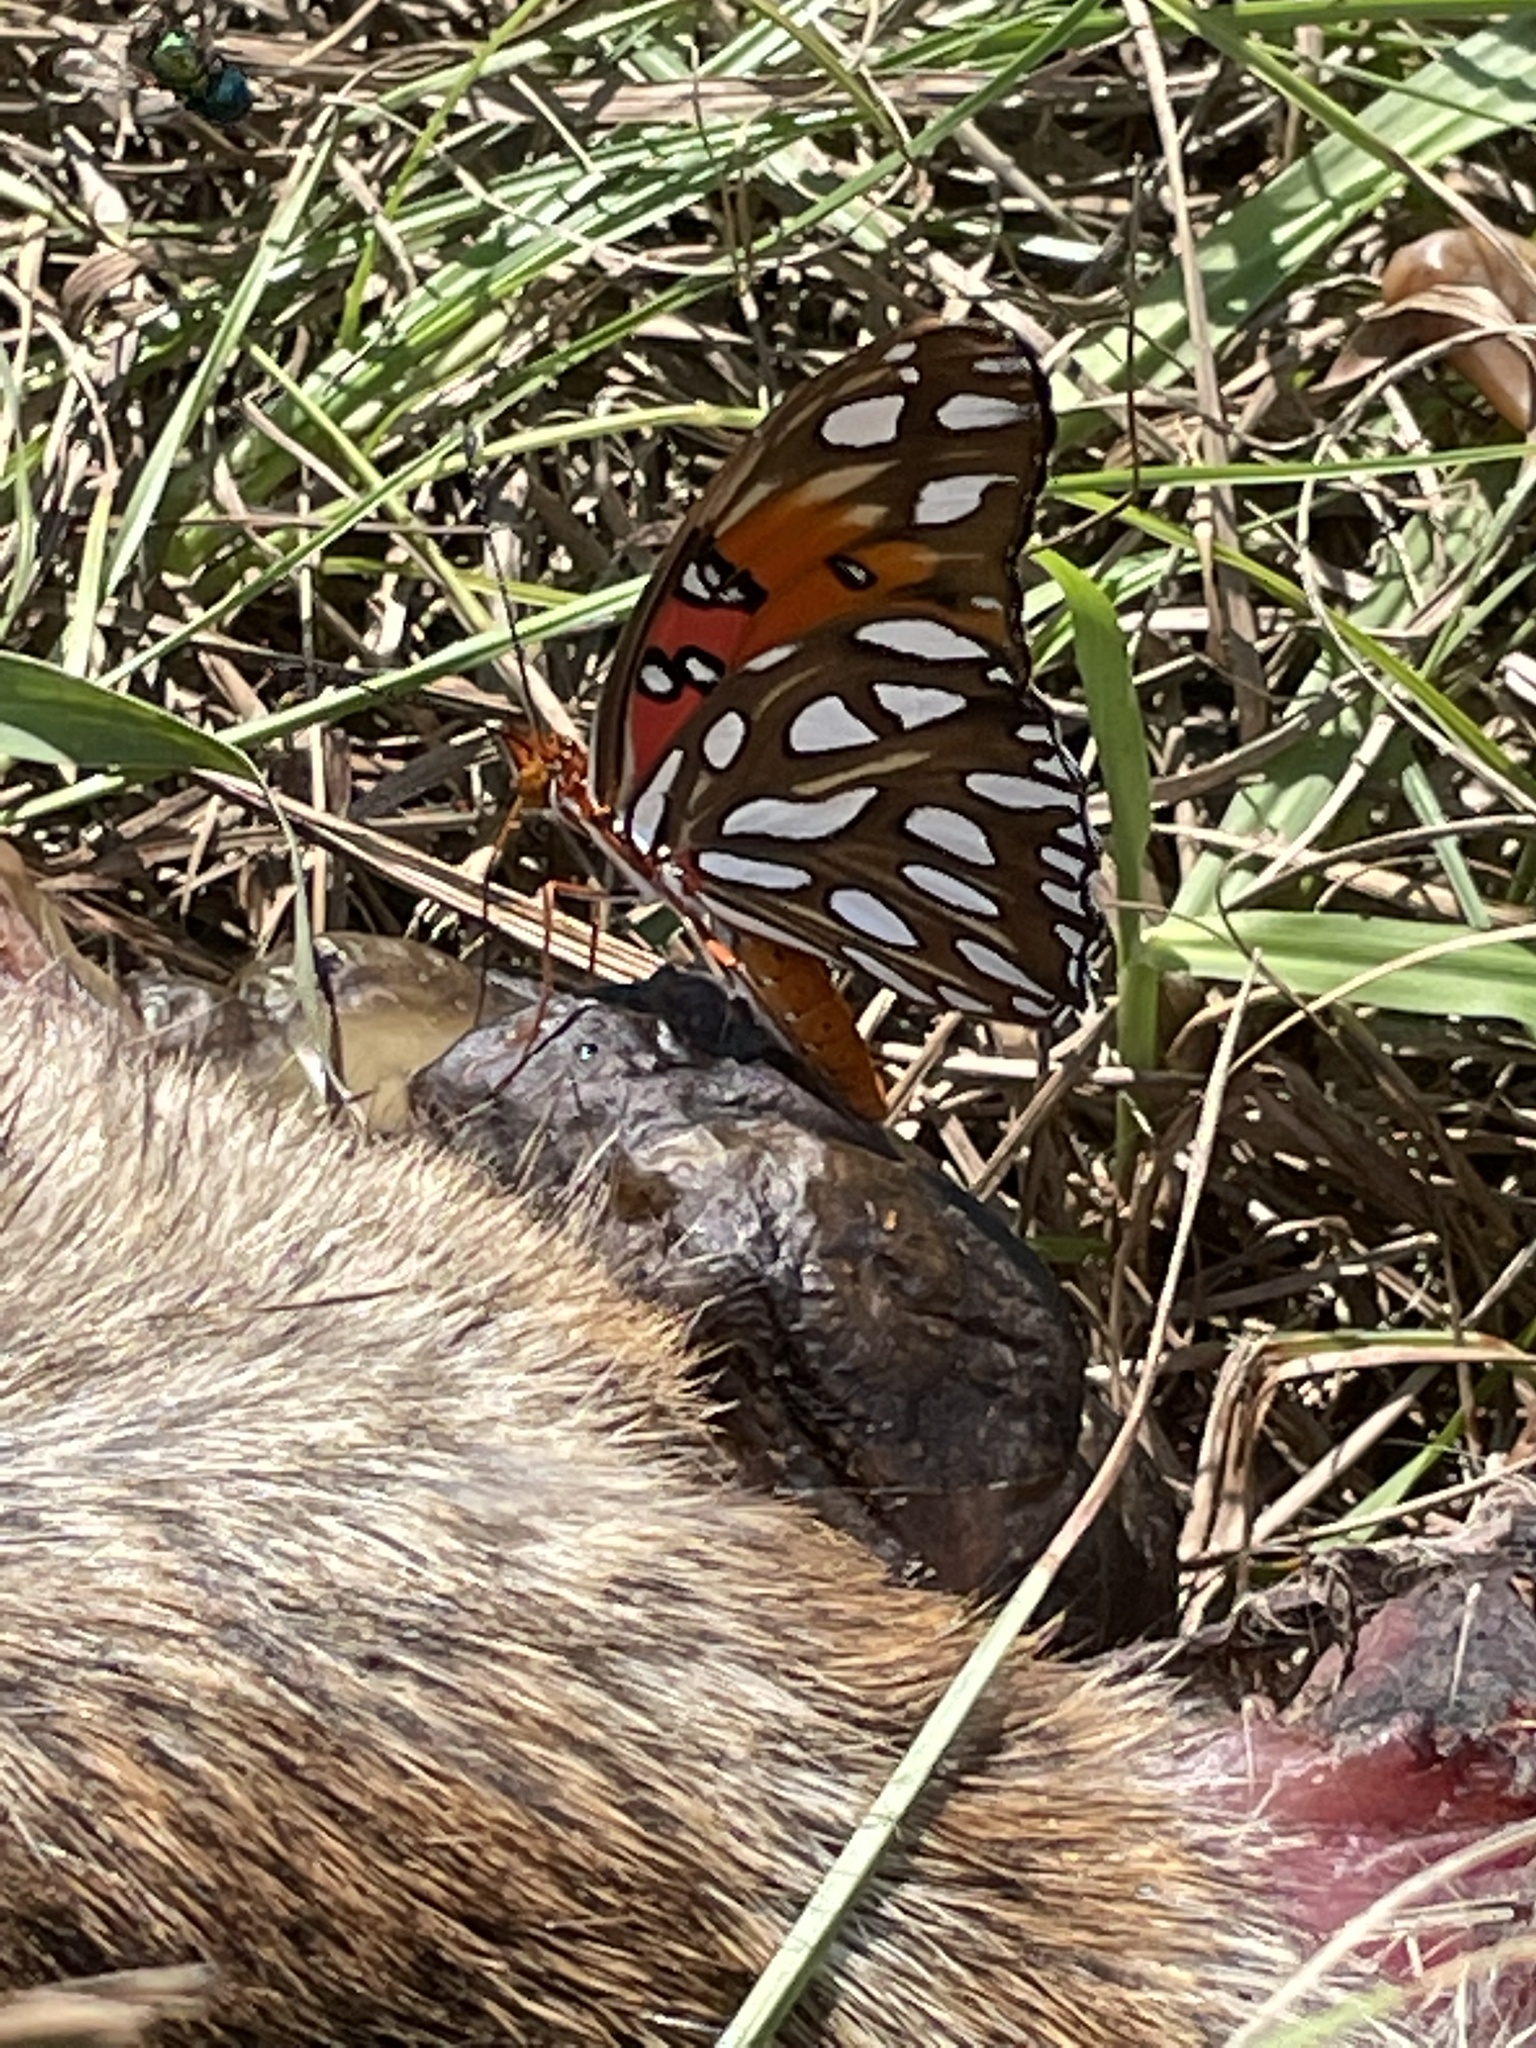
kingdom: Animalia
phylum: Arthropoda
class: Insecta
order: Lepidoptera
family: Nymphalidae
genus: Dione
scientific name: Dione vanillae
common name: Gulf fritillary
